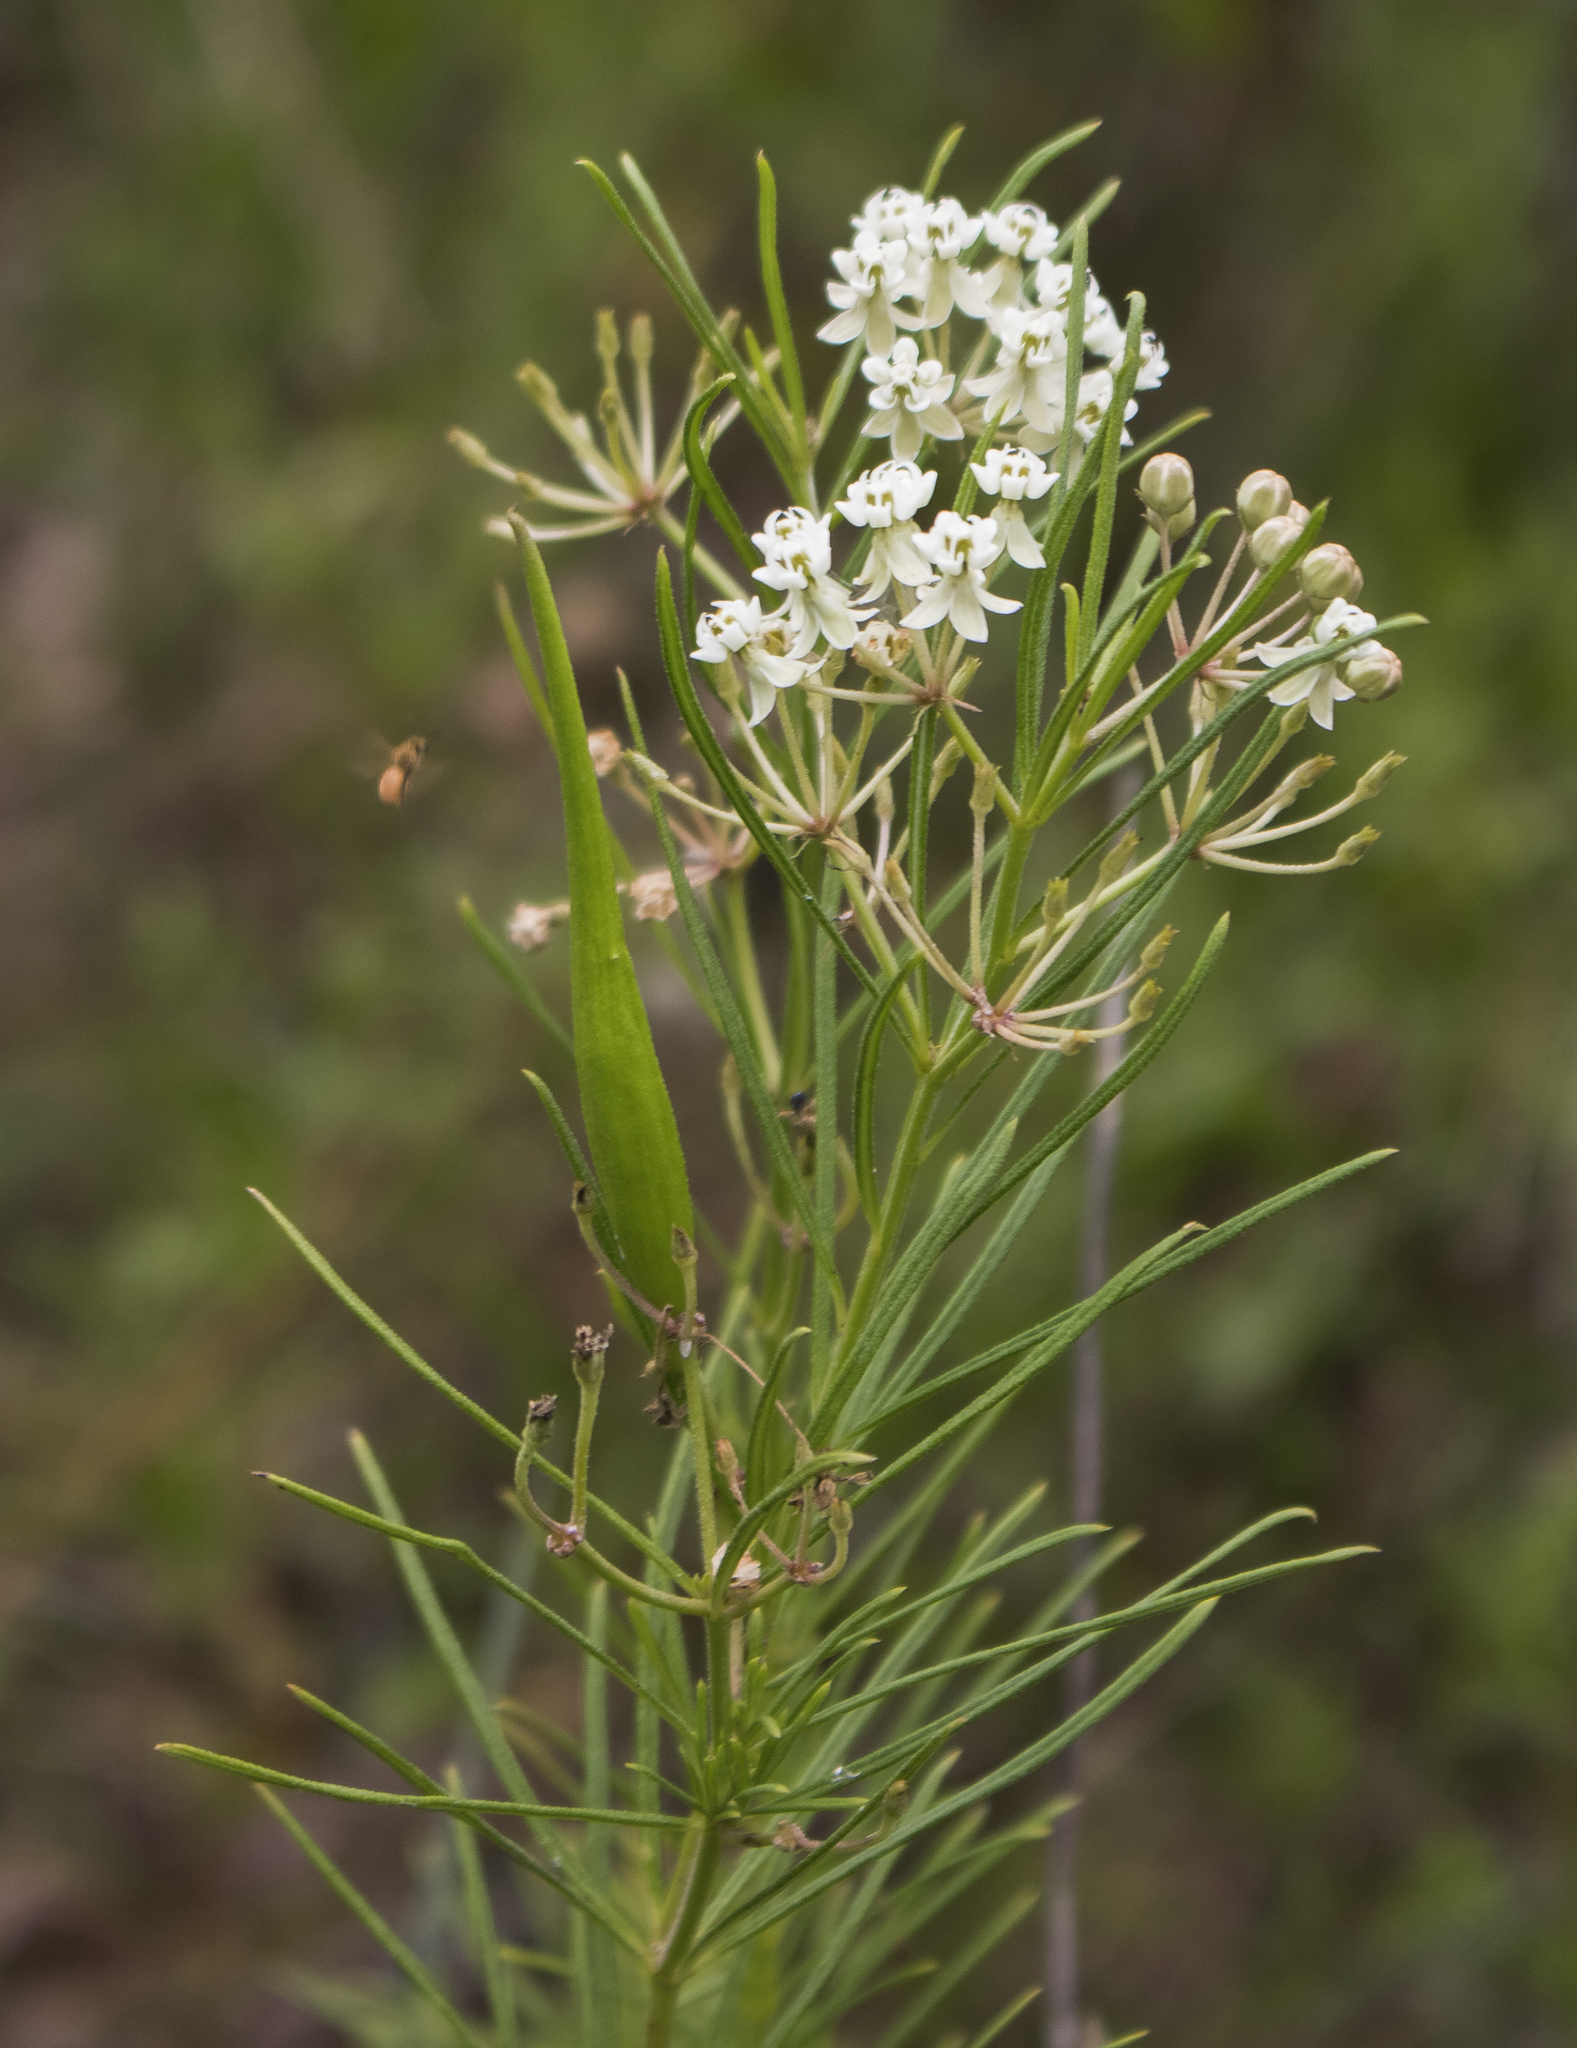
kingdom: Plantae
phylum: Tracheophyta
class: Magnoliopsida
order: Gentianales
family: Apocynaceae
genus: Asclepias
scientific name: Asclepias verticillata
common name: Eastern whorled milkweed
